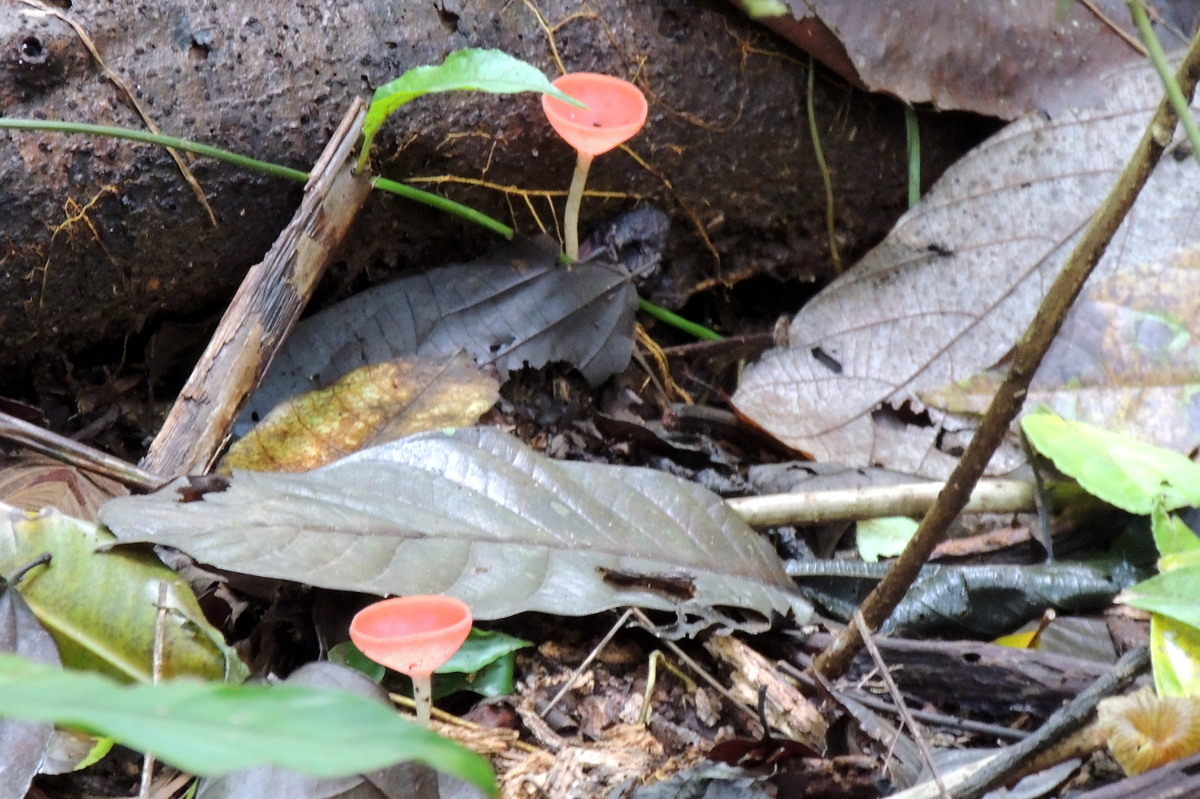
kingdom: Fungi
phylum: Ascomycota
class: Pezizomycetes
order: Pezizales
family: Sarcoscyphaceae
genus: Cookeina
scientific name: Cookeina speciosa
